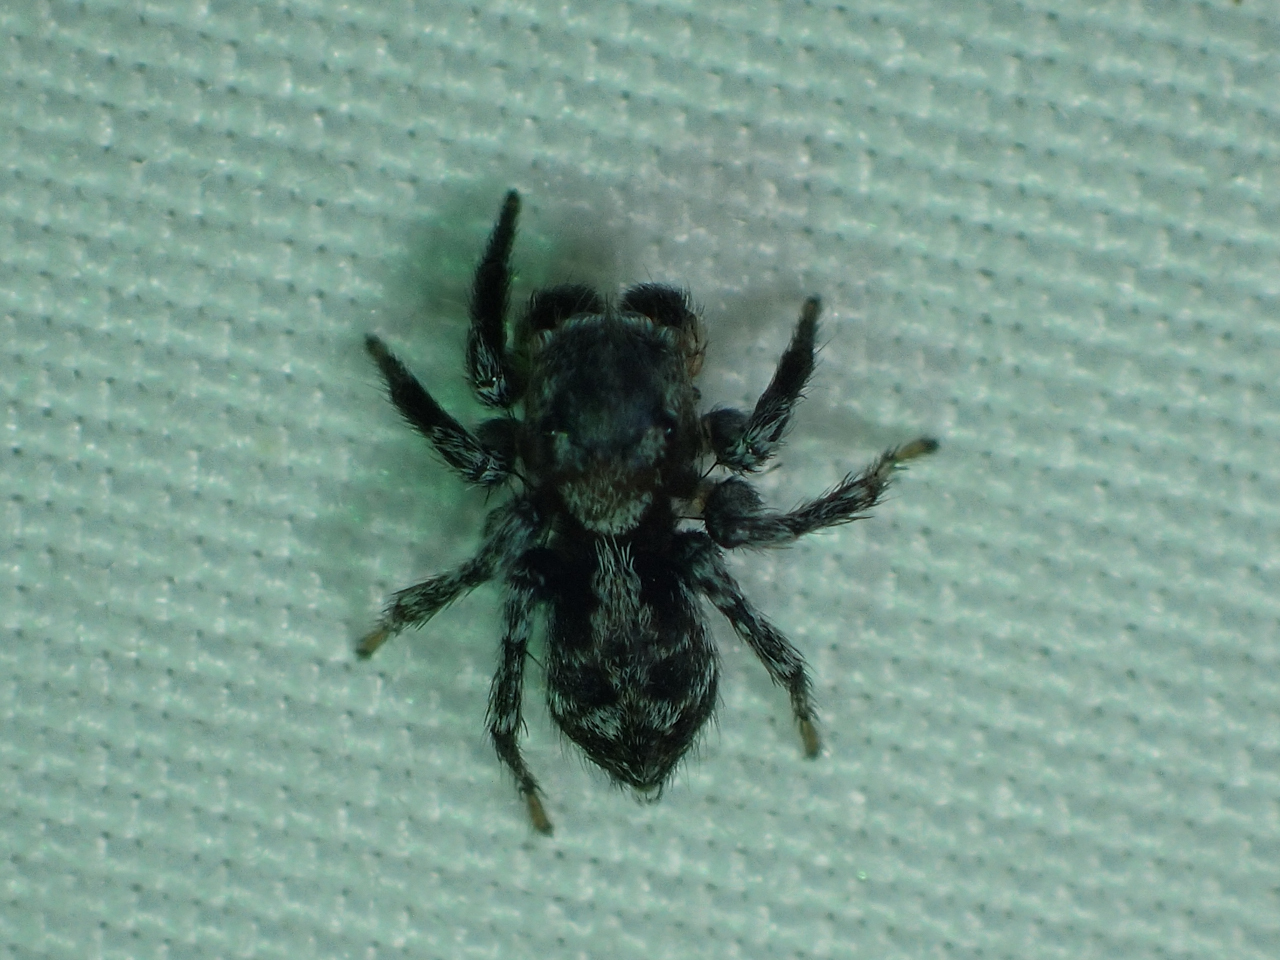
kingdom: Animalia
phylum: Arthropoda
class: Arachnida
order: Araneae
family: Salticidae
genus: Naphrys
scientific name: Naphrys pulex
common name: Flea jumping spider
